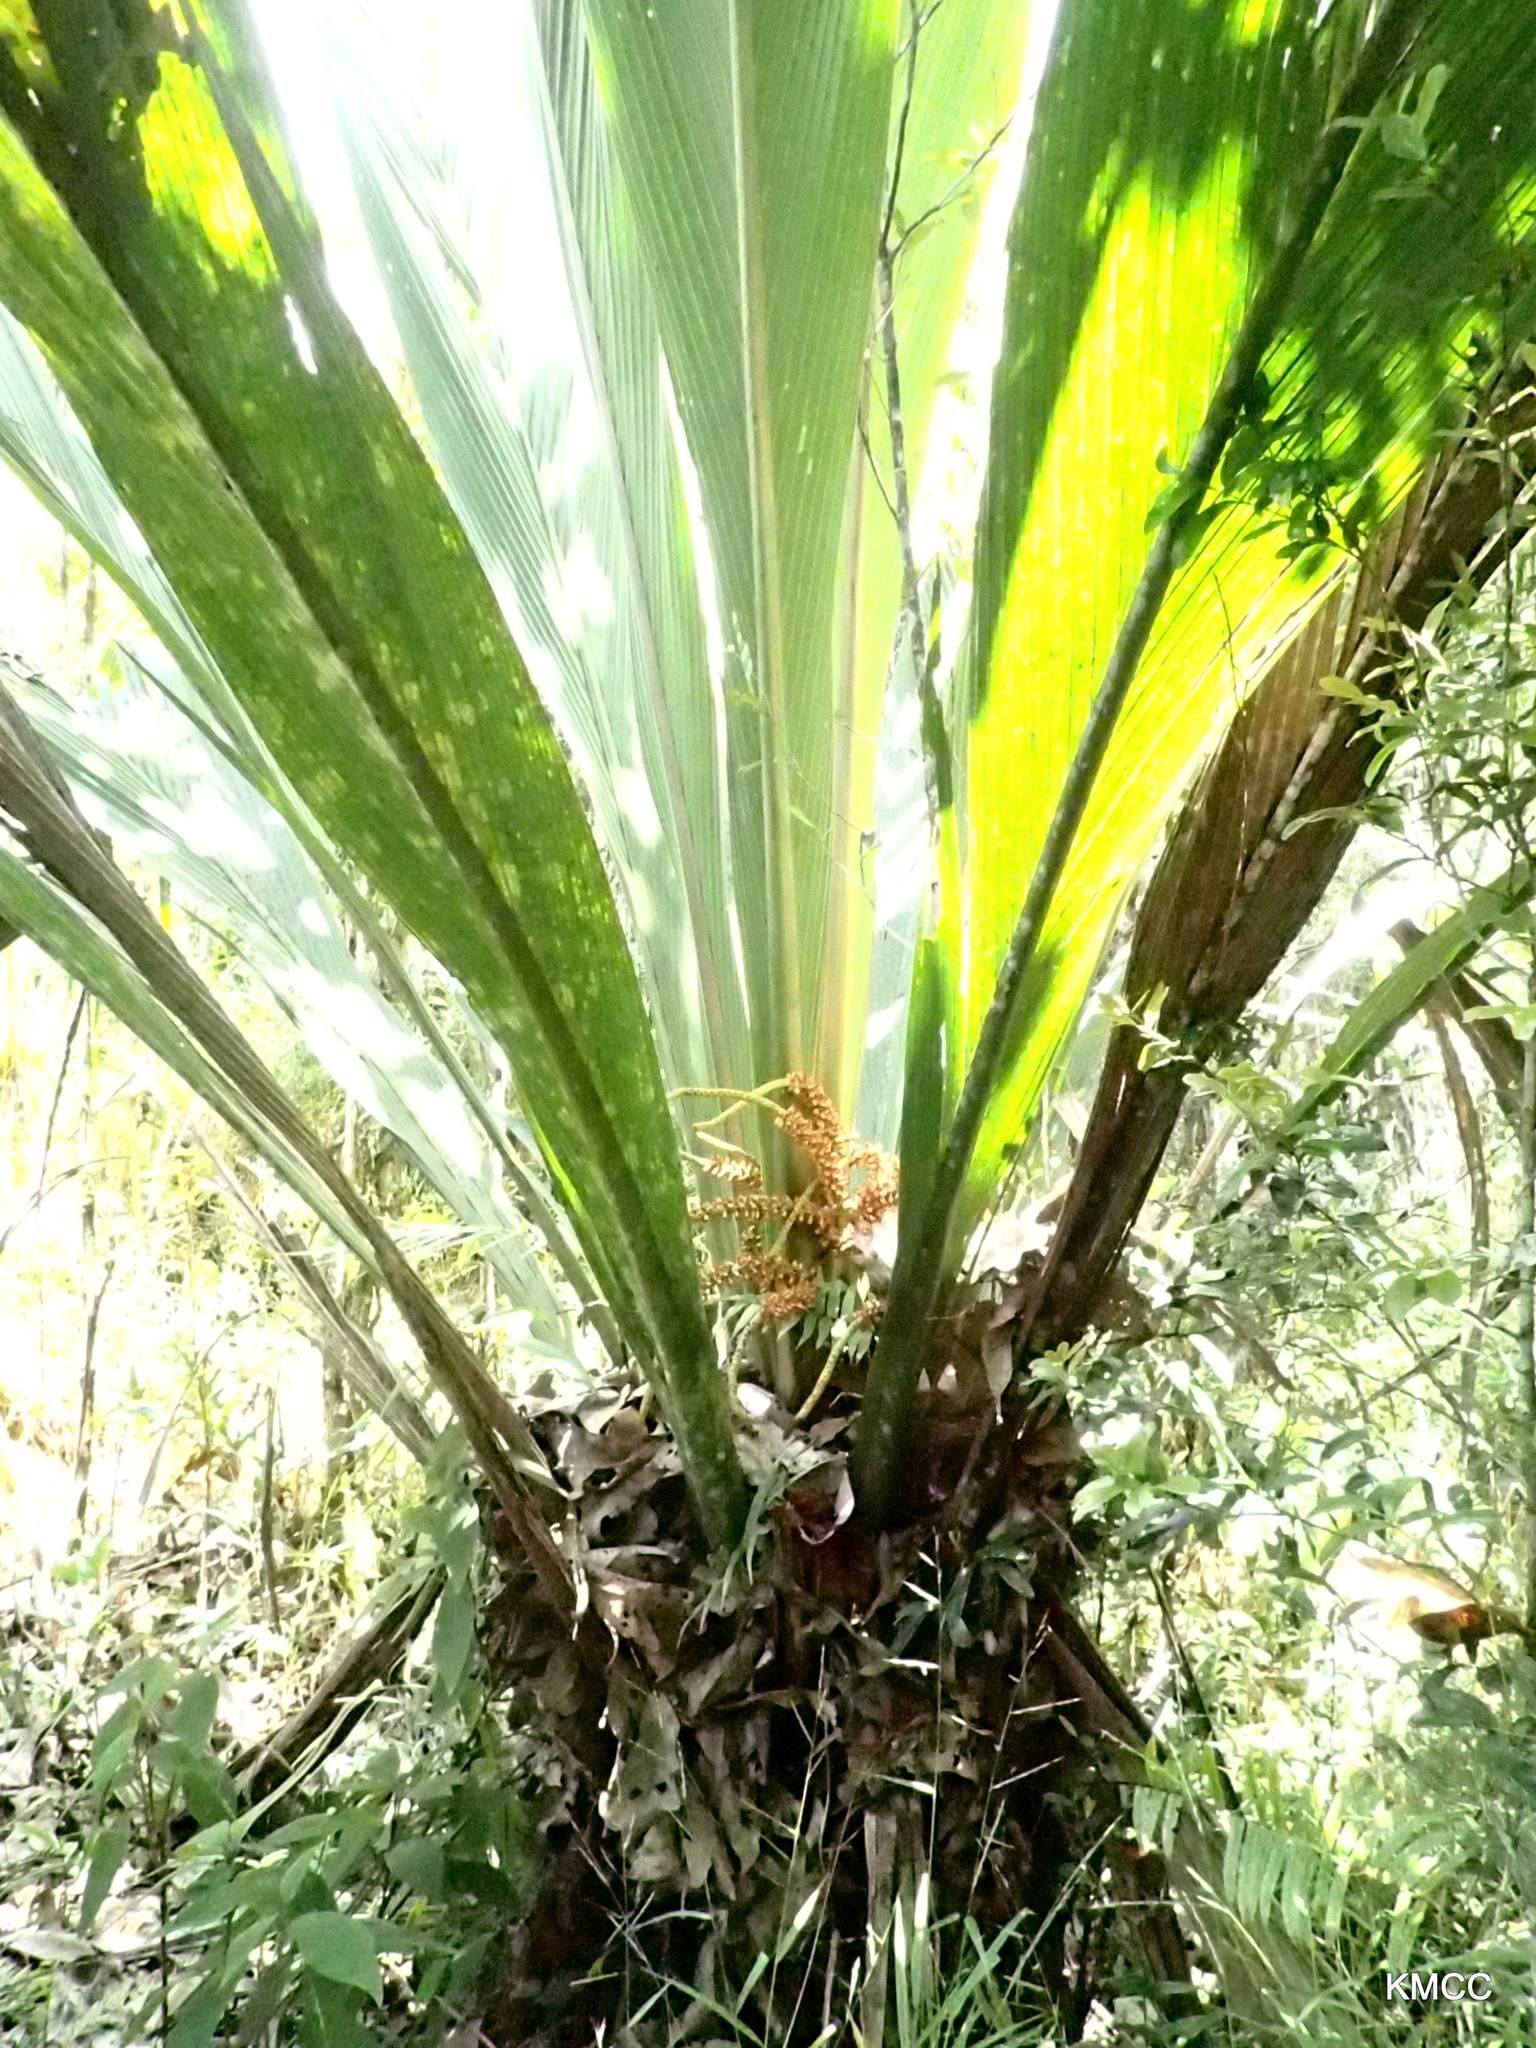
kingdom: Plantae
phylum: Tracheophyta
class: Liliopsida
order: Arecales
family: Arecaceae
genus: Masoala
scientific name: Masoala kona
